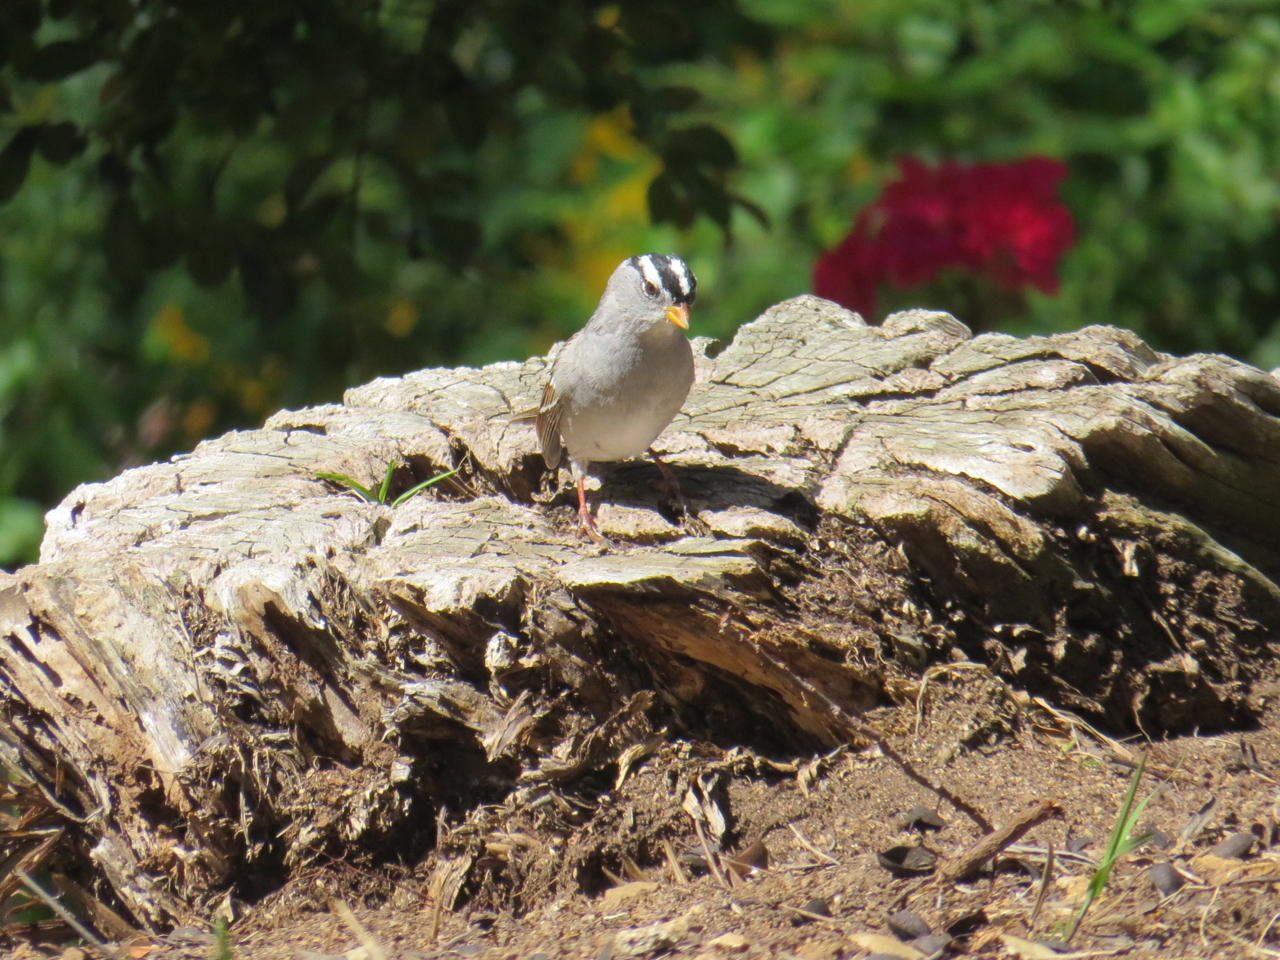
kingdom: Animalia
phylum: Chordata
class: Aves
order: Passeriformes
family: Passerellidae
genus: Zonotrichia
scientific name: Zonotrichia leucophrys
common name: White-crowned sparrow
